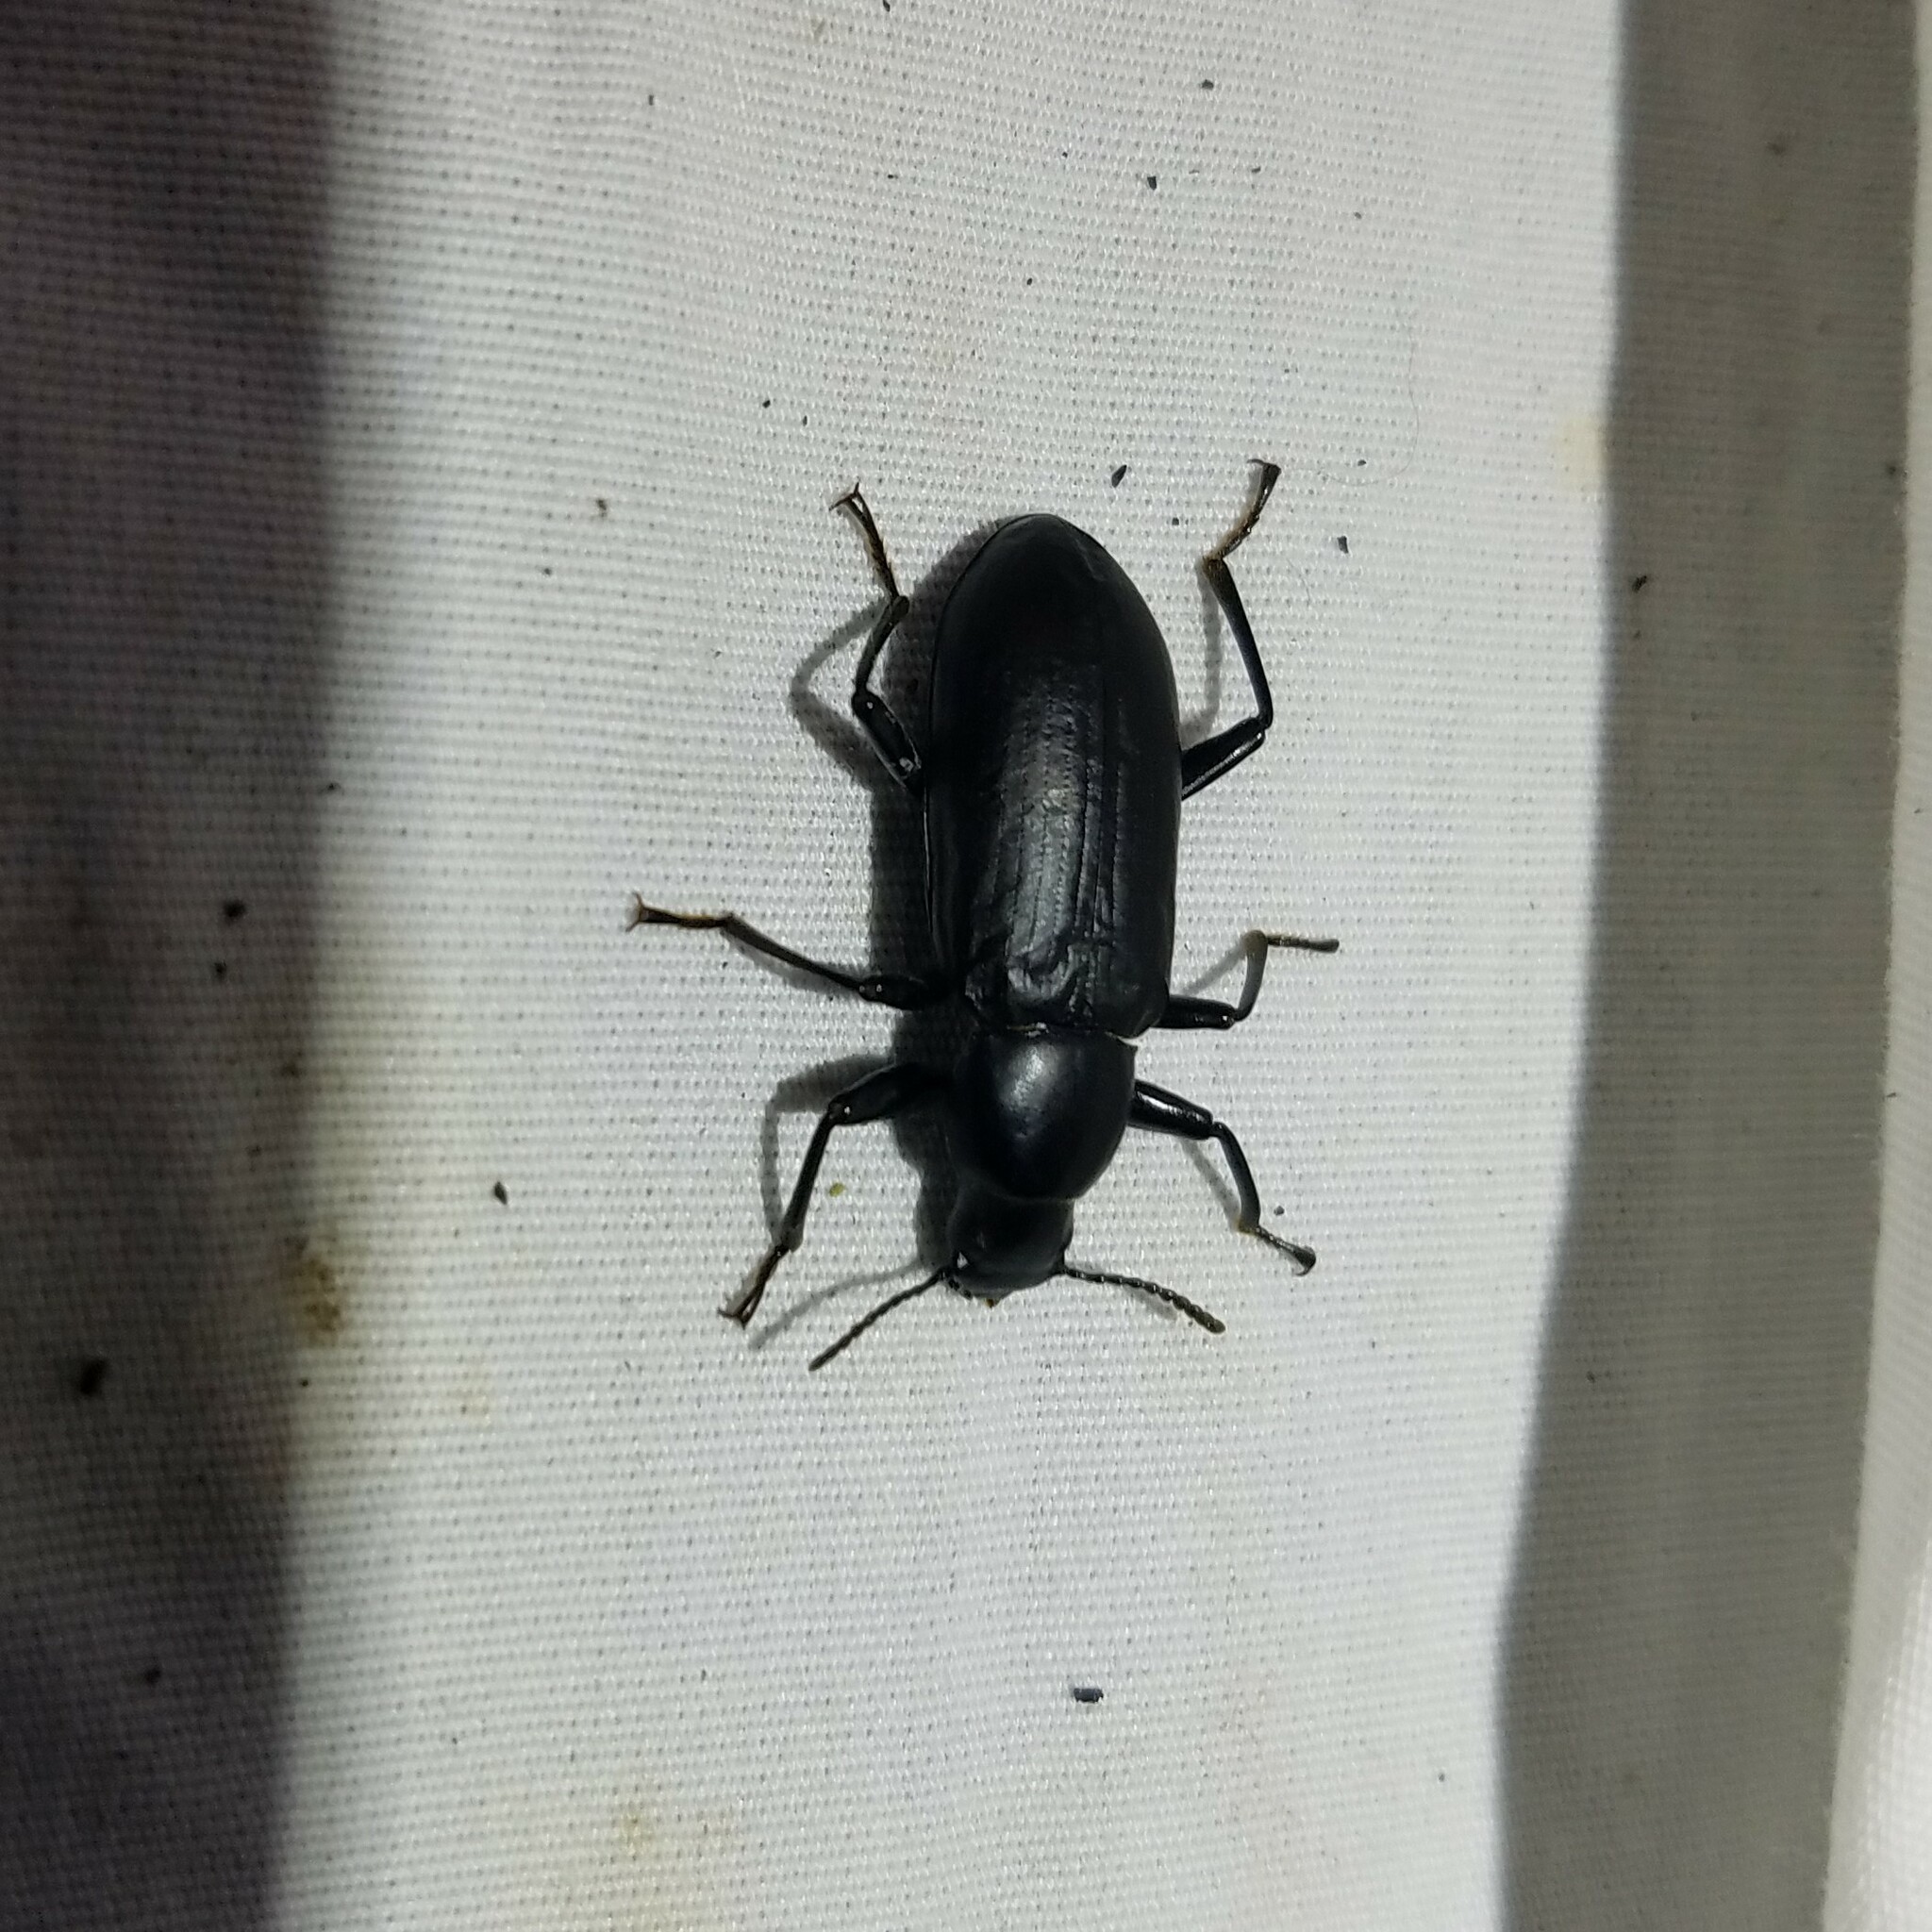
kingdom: Animalia
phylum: Arthropoda
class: Insecta
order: Coleoptera
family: Tenebrionidae
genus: Alobates
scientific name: Alobates pensylvanicus
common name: False mealworm beetle
